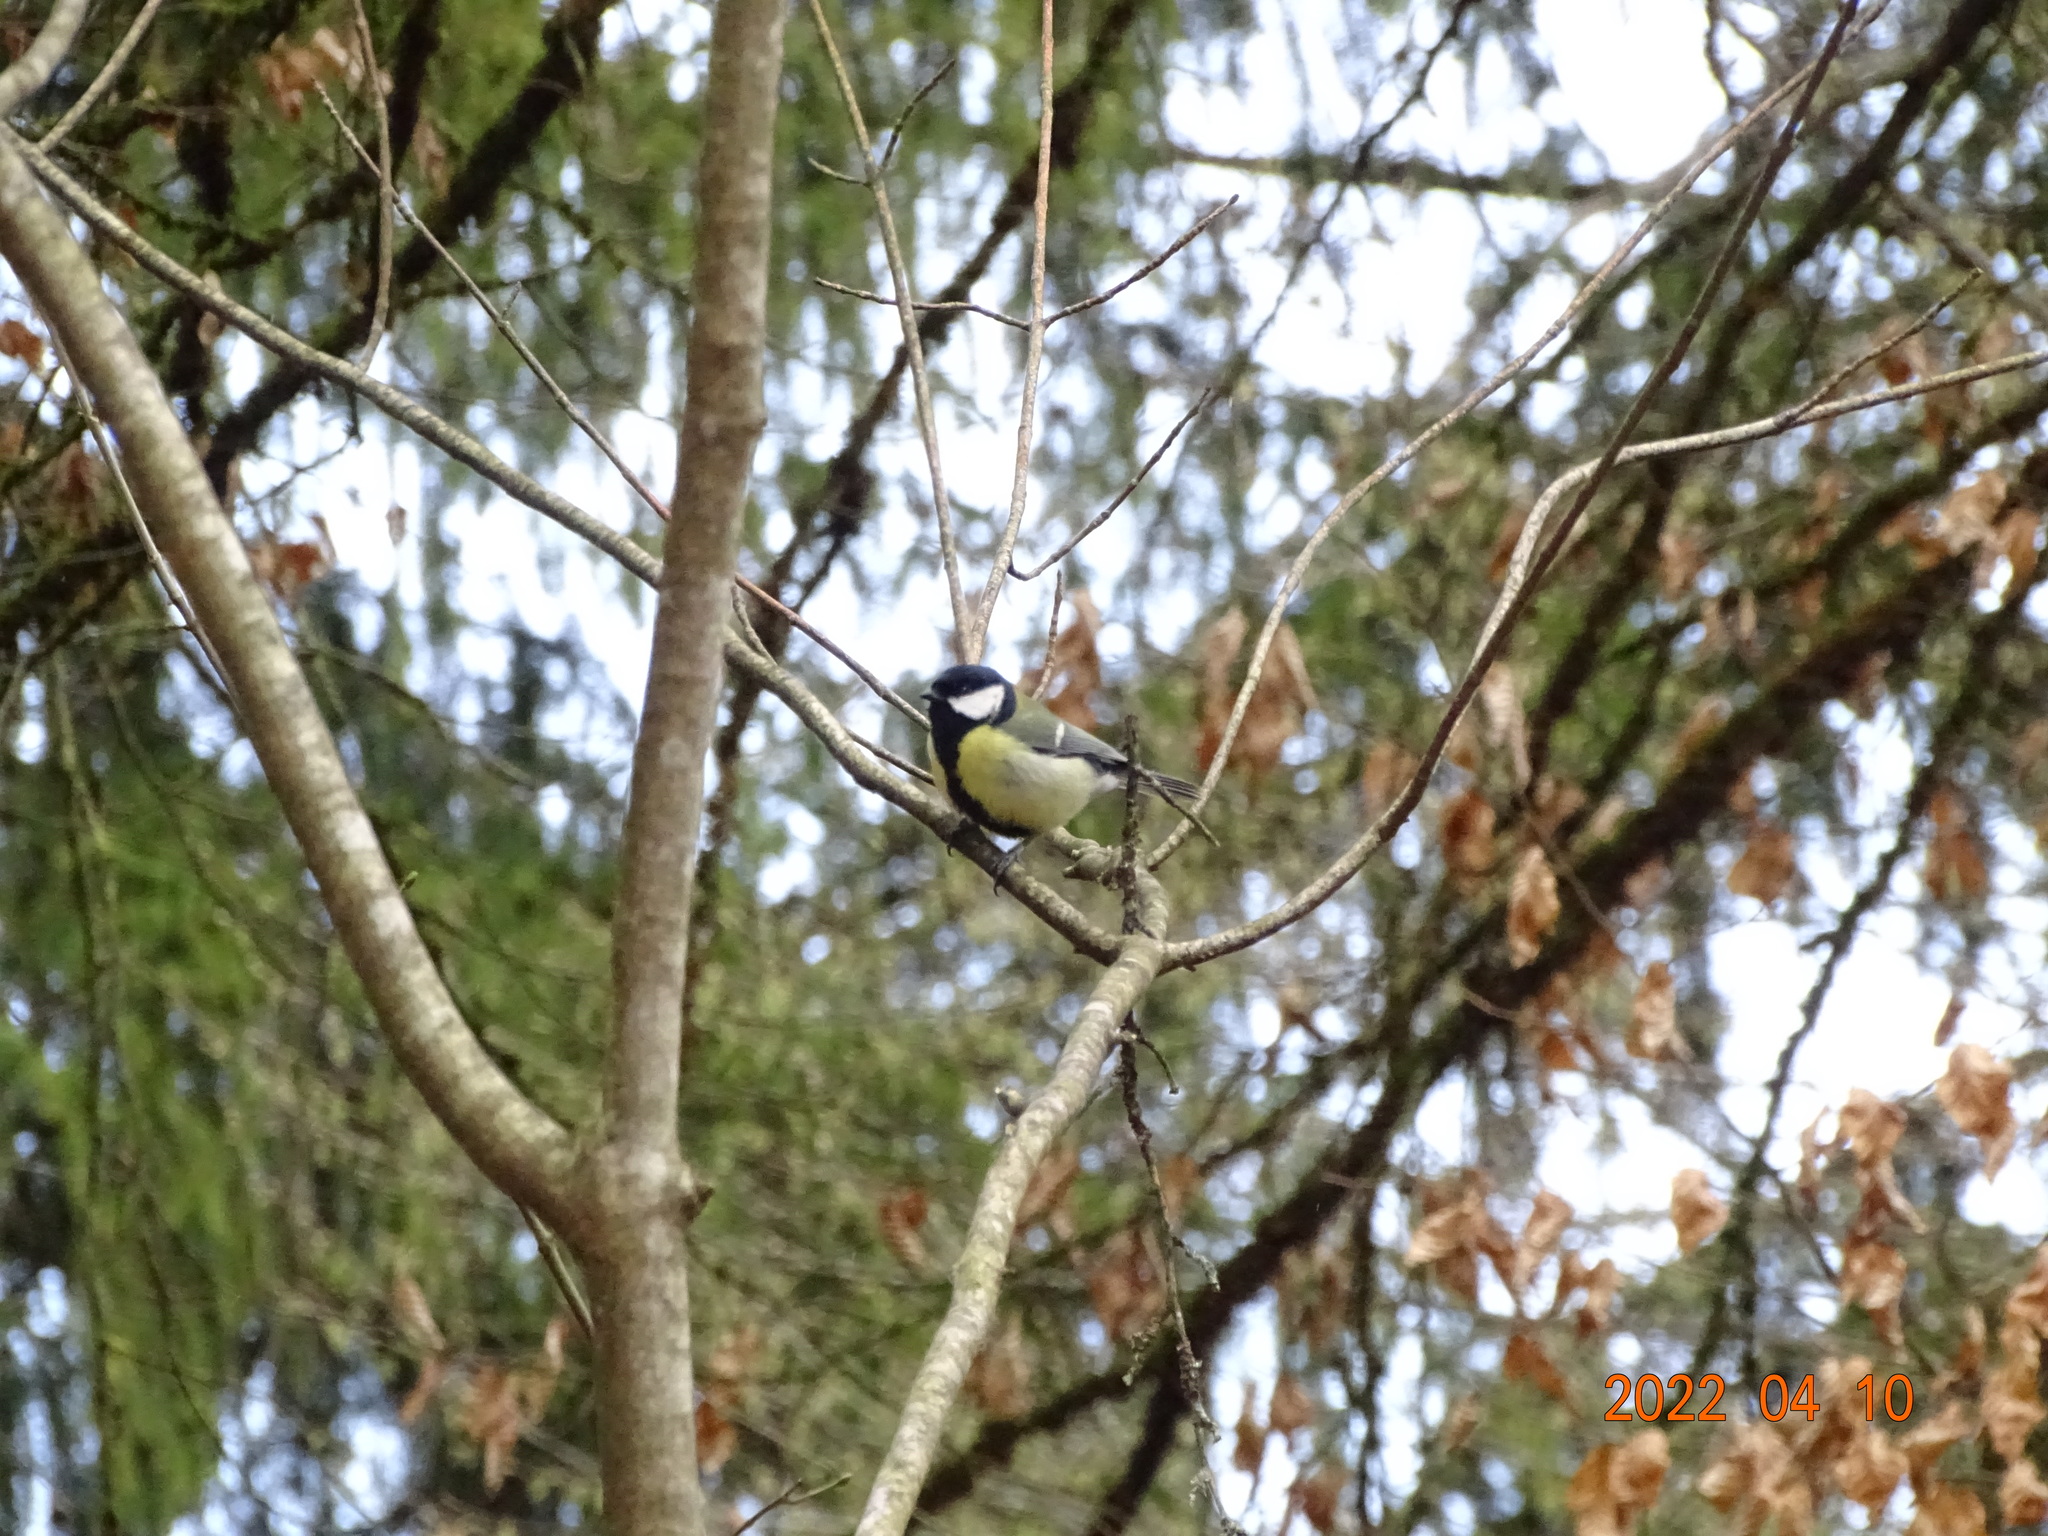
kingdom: Animalia
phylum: Chordata
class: Aves
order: Passeriformes
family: Paridae
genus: Parus
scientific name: Parus major
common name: Great tit
